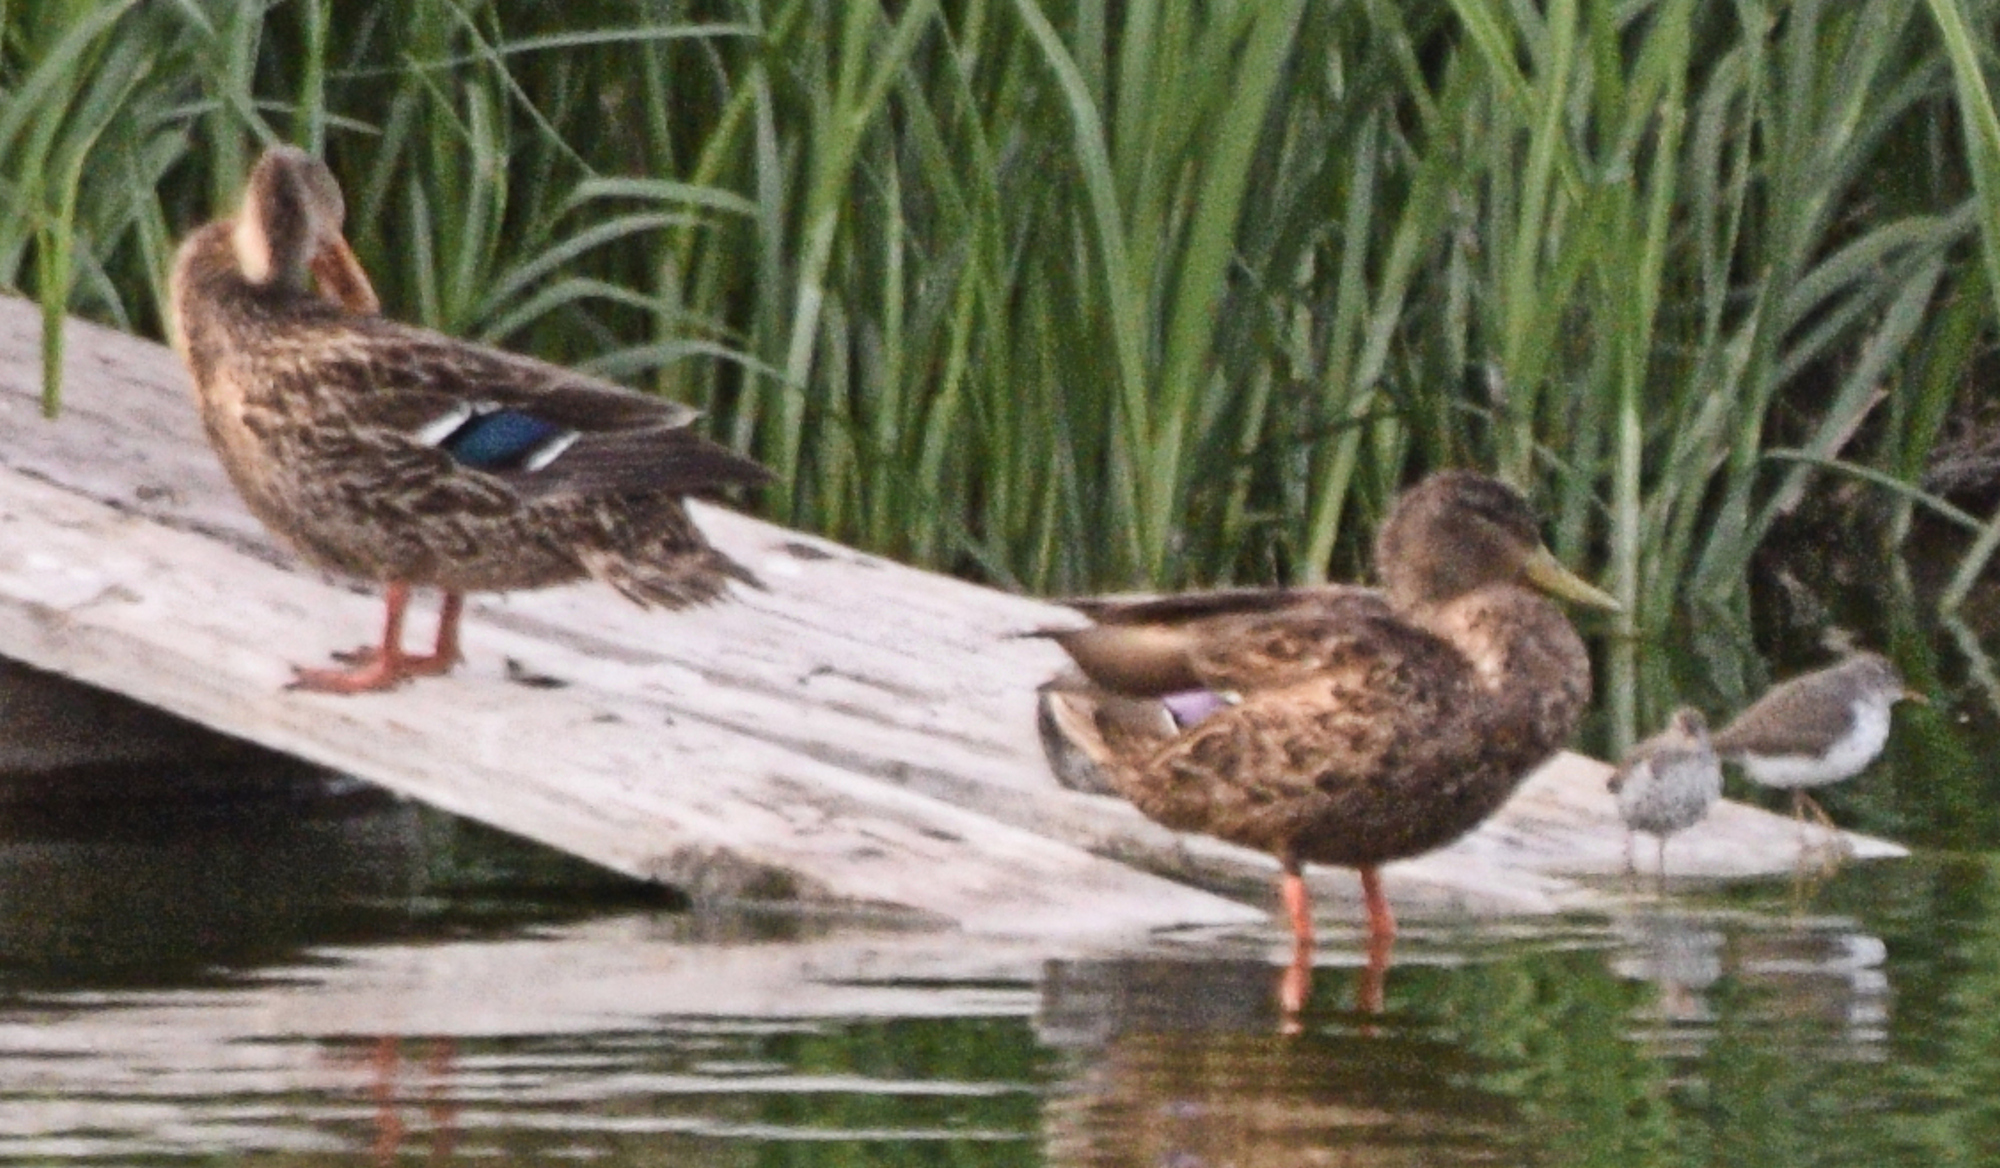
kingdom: Animalia
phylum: Chordata
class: Aves
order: Charadriiformes
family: Scolopacidae
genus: Actitis
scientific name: Actitis macularius
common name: Spotted sandpiper
